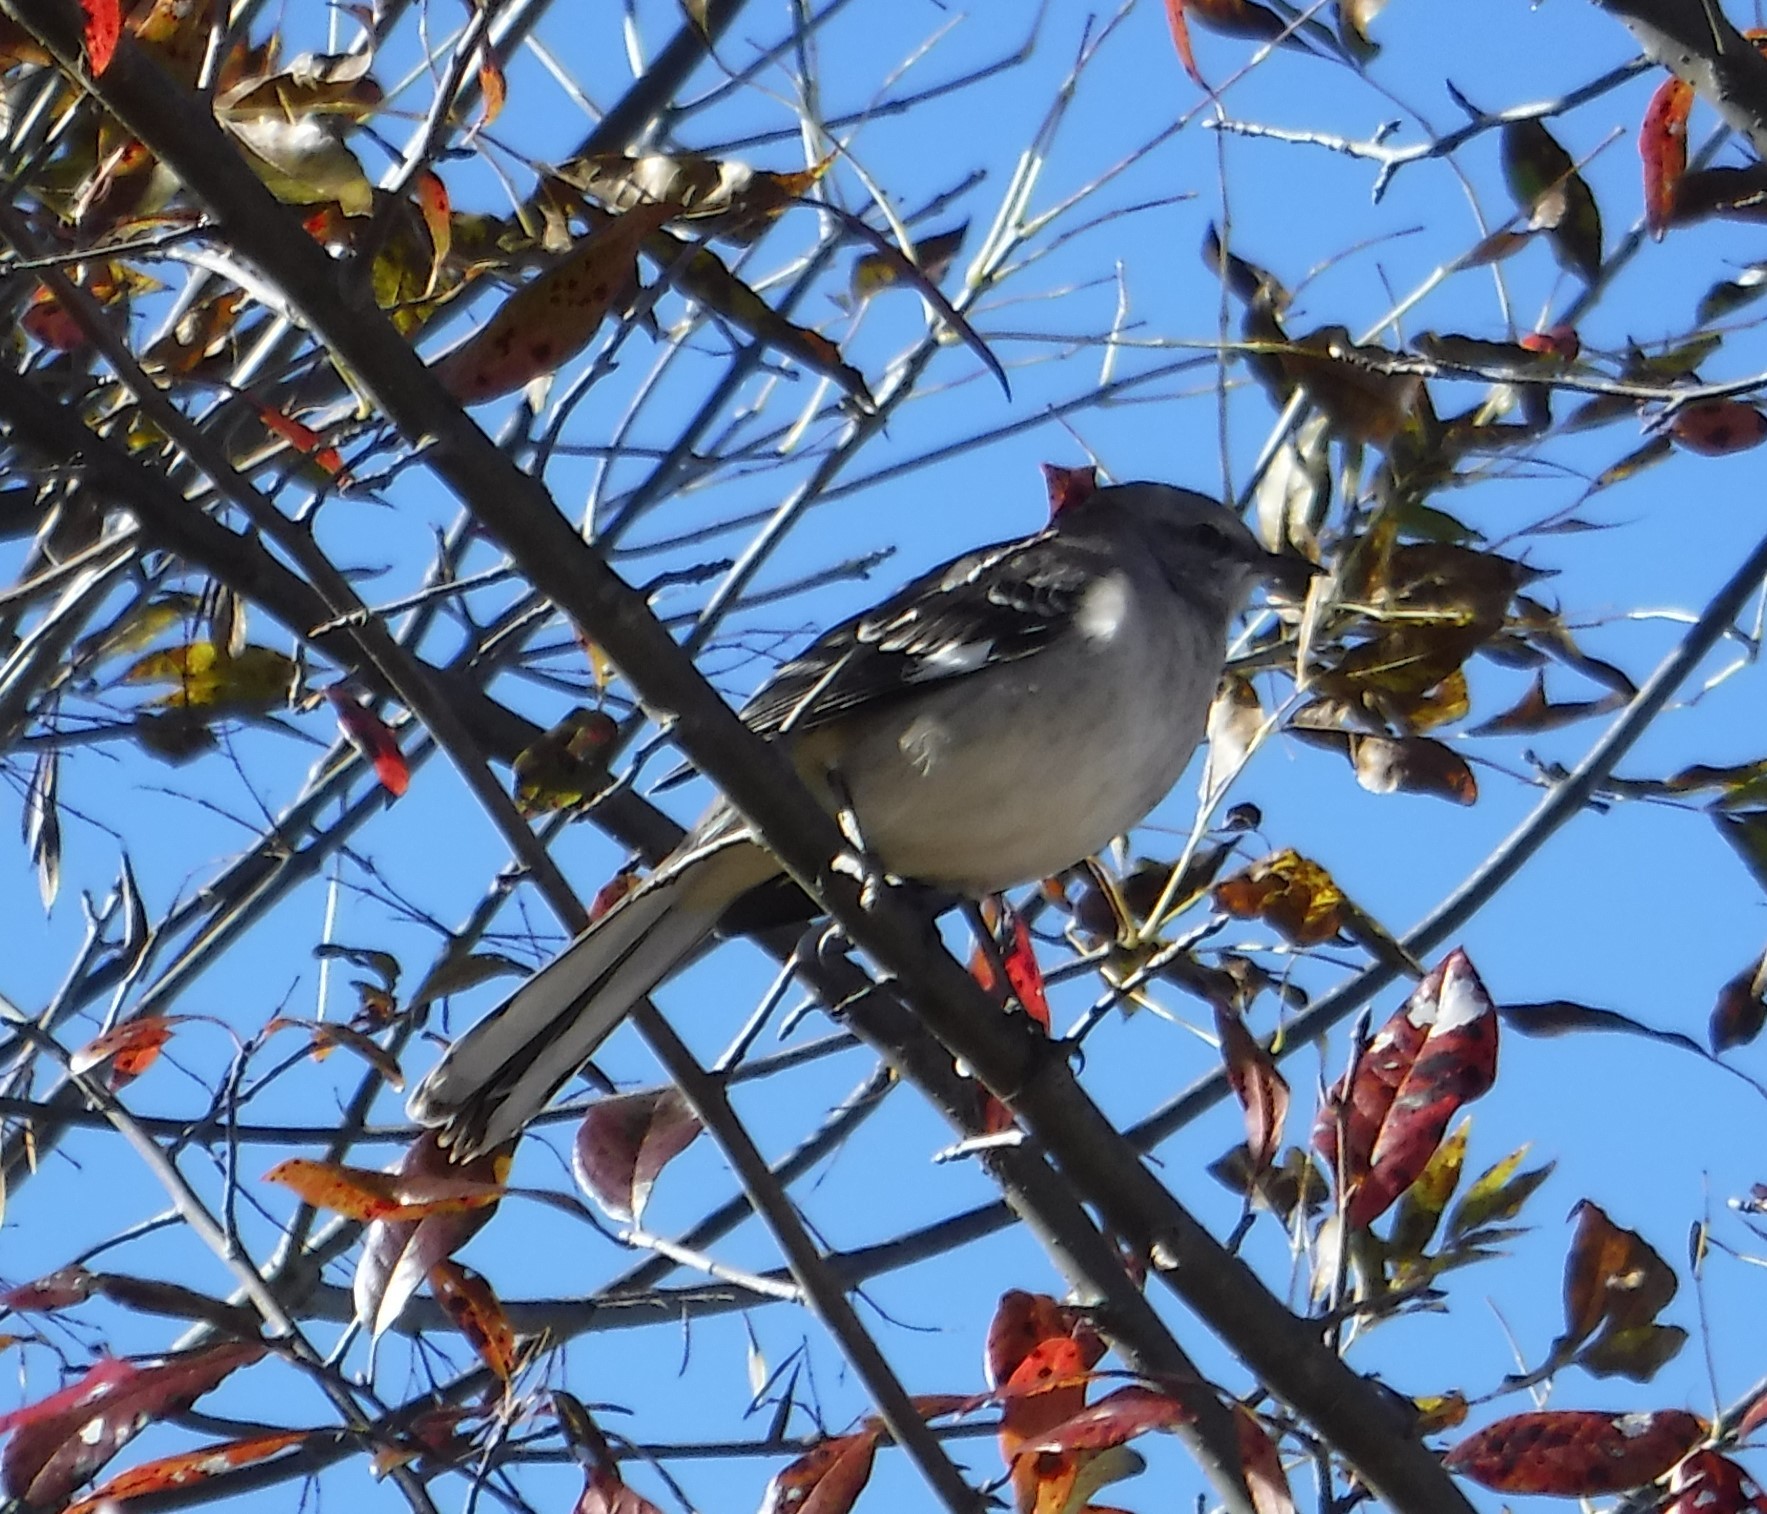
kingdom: Animalia
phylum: Chordata
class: Aves
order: Passeriformes
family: Mimidae
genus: Mimus
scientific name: Mimus polyglottos
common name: Northern mockingbird
